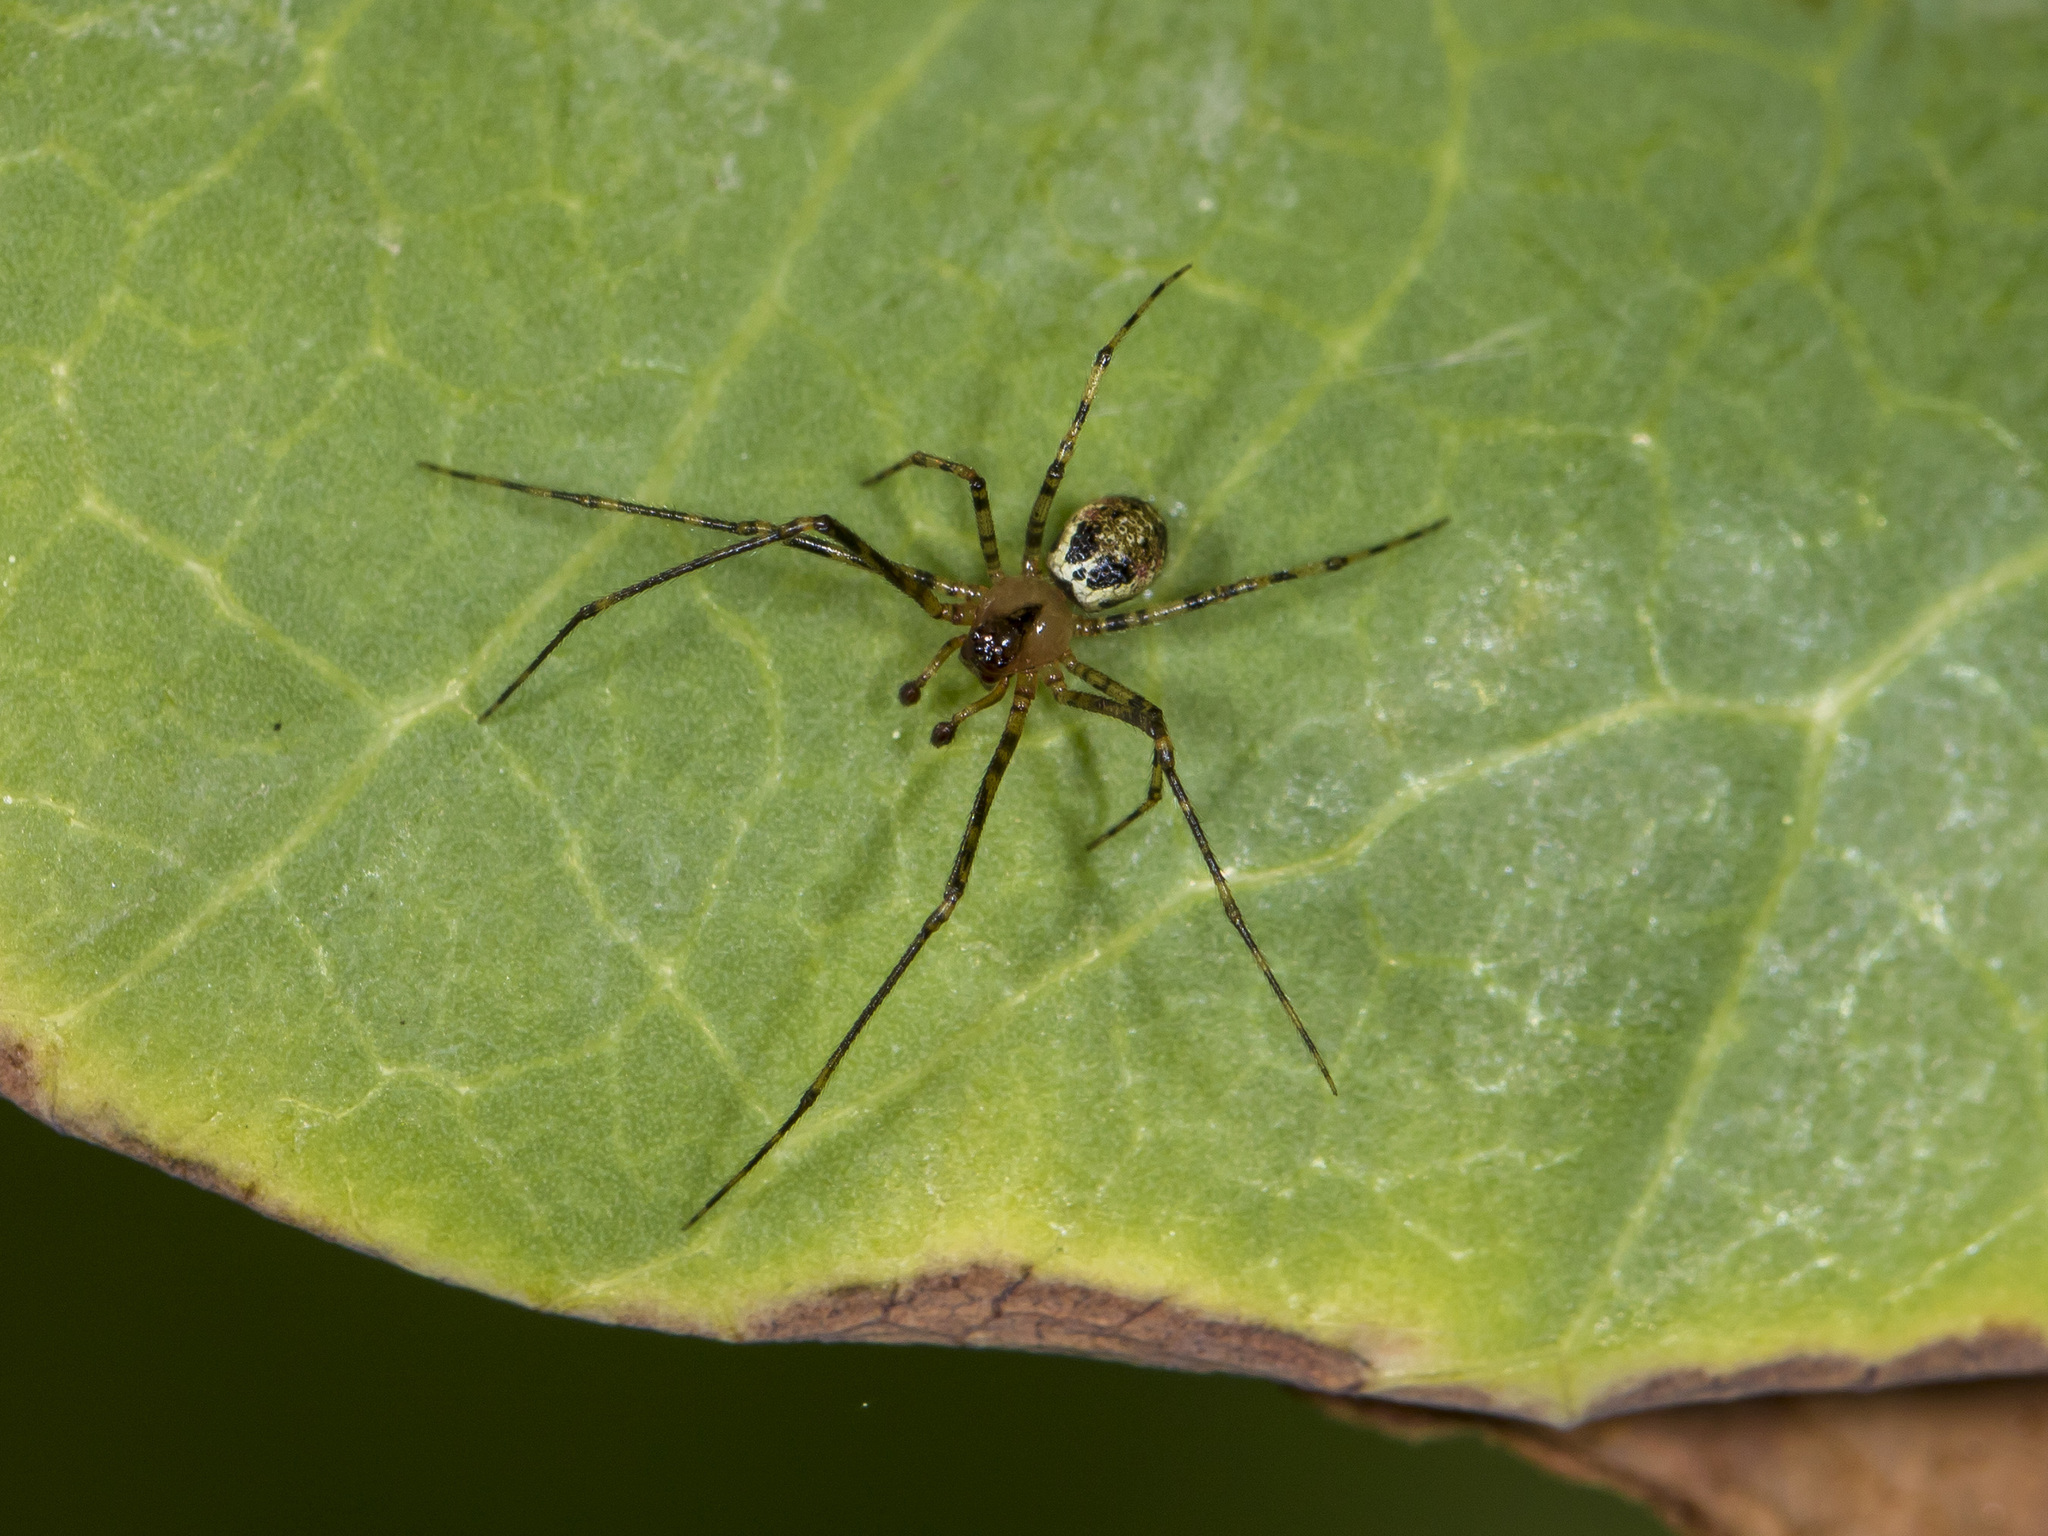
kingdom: Animalia
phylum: Arthropoda
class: Arachnida
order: Araneae
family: Theridiidae
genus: Platnickina
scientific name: Platnickina tincta
